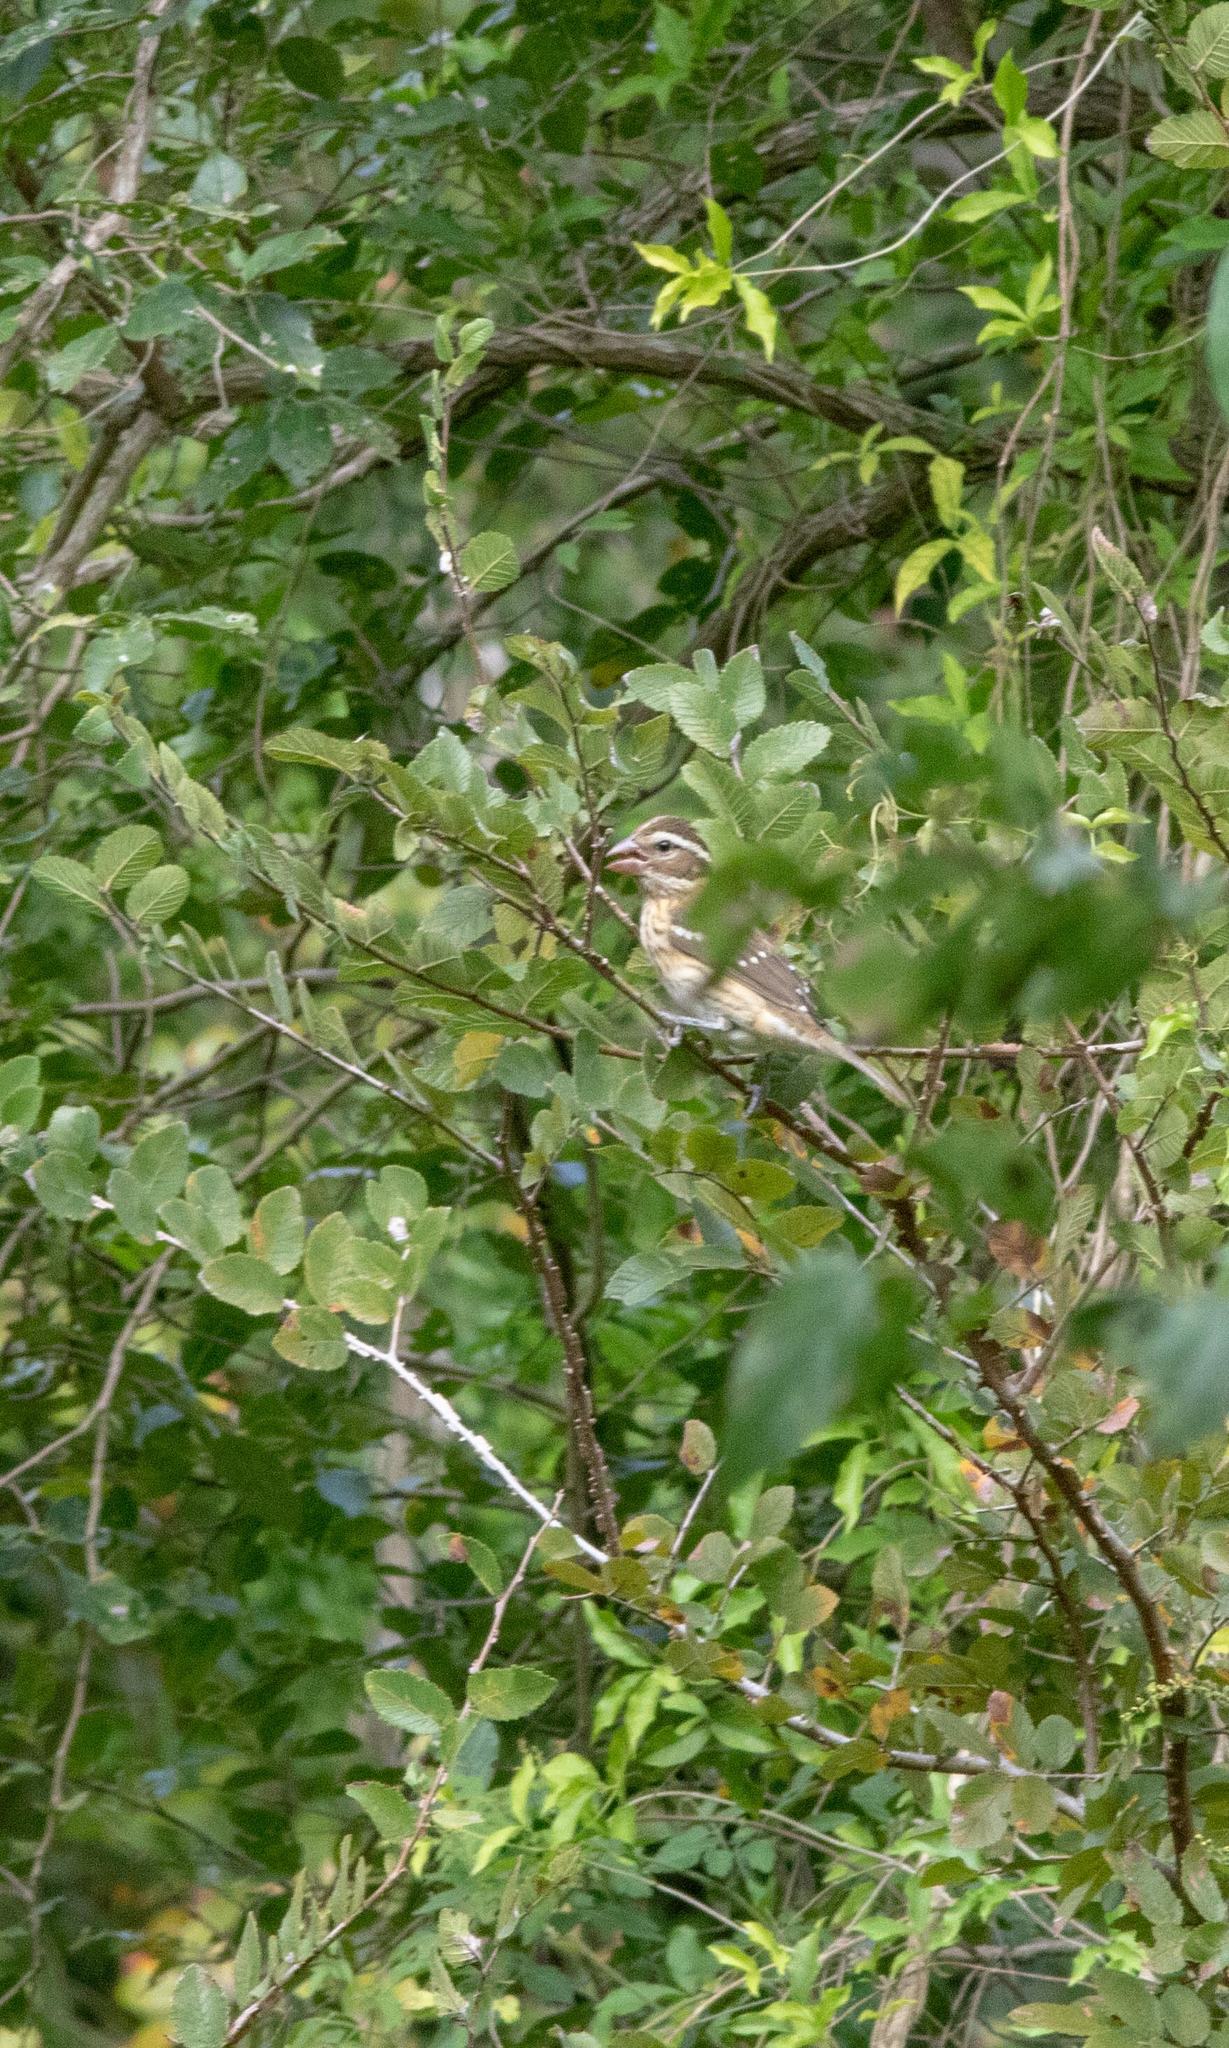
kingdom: Animalia
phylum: Chordata
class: Aves
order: Passeriformes
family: Cardinalidae
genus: Pheucticus
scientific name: Pheucticus ludovicianus
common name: Rose-breasted grosbeak
